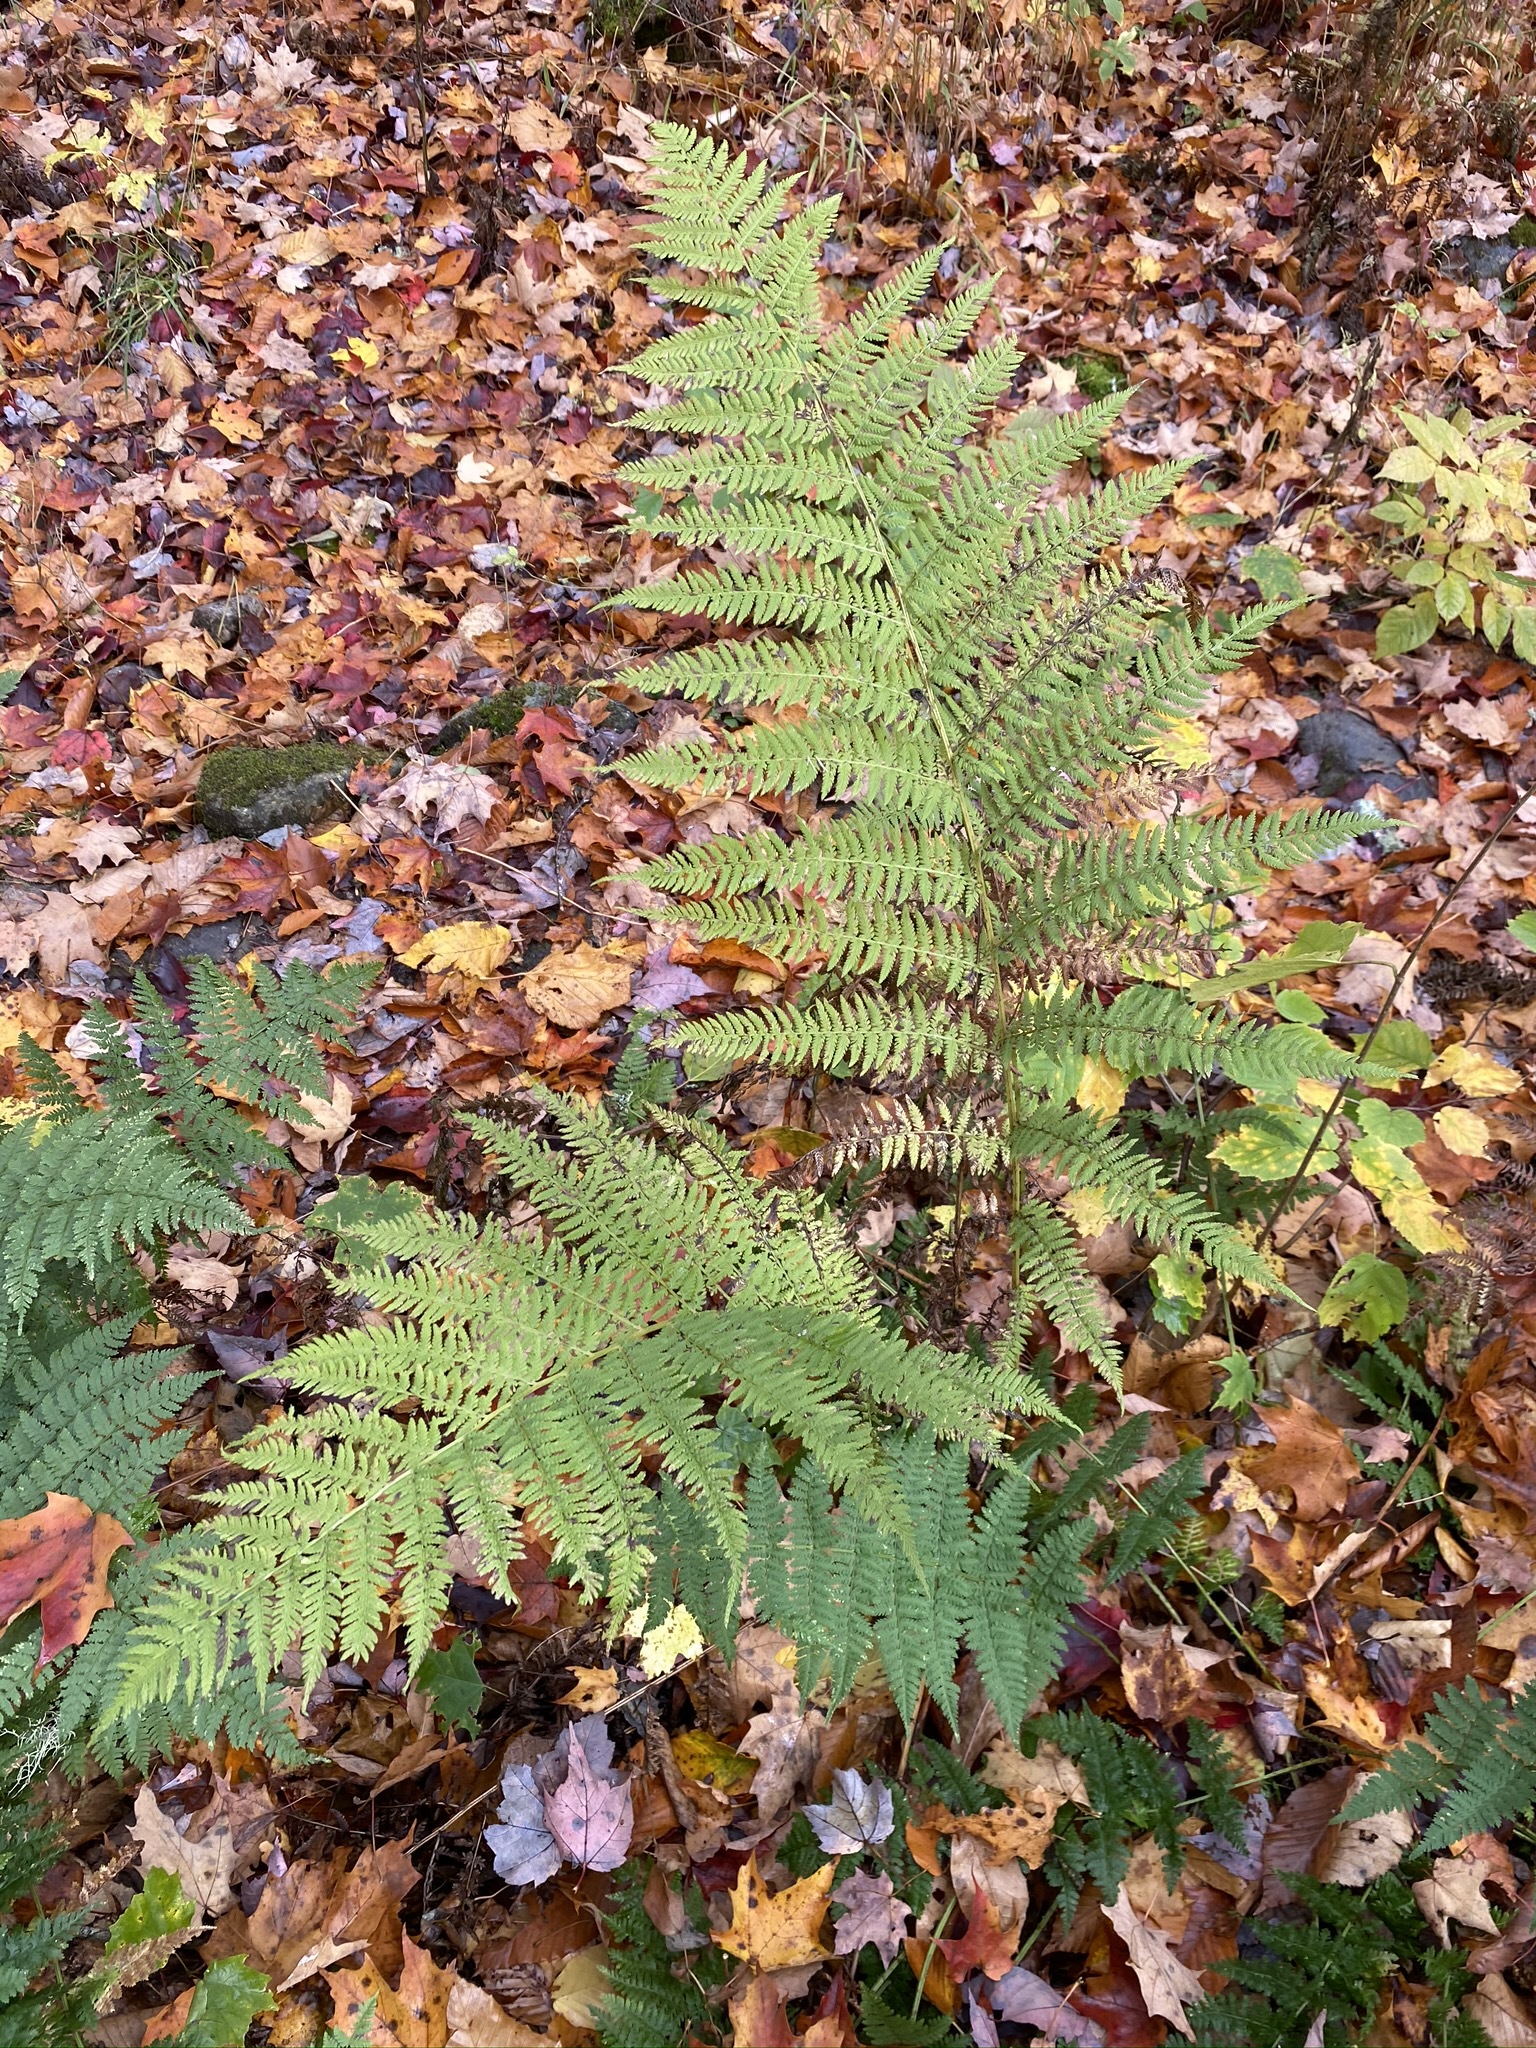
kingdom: Plantae
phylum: Tracheophyta
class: Polypodiopsida
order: Polypodiales
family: Athyriaceae
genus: Athyrium
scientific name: Athyrium angustum
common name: Northern lady fern
